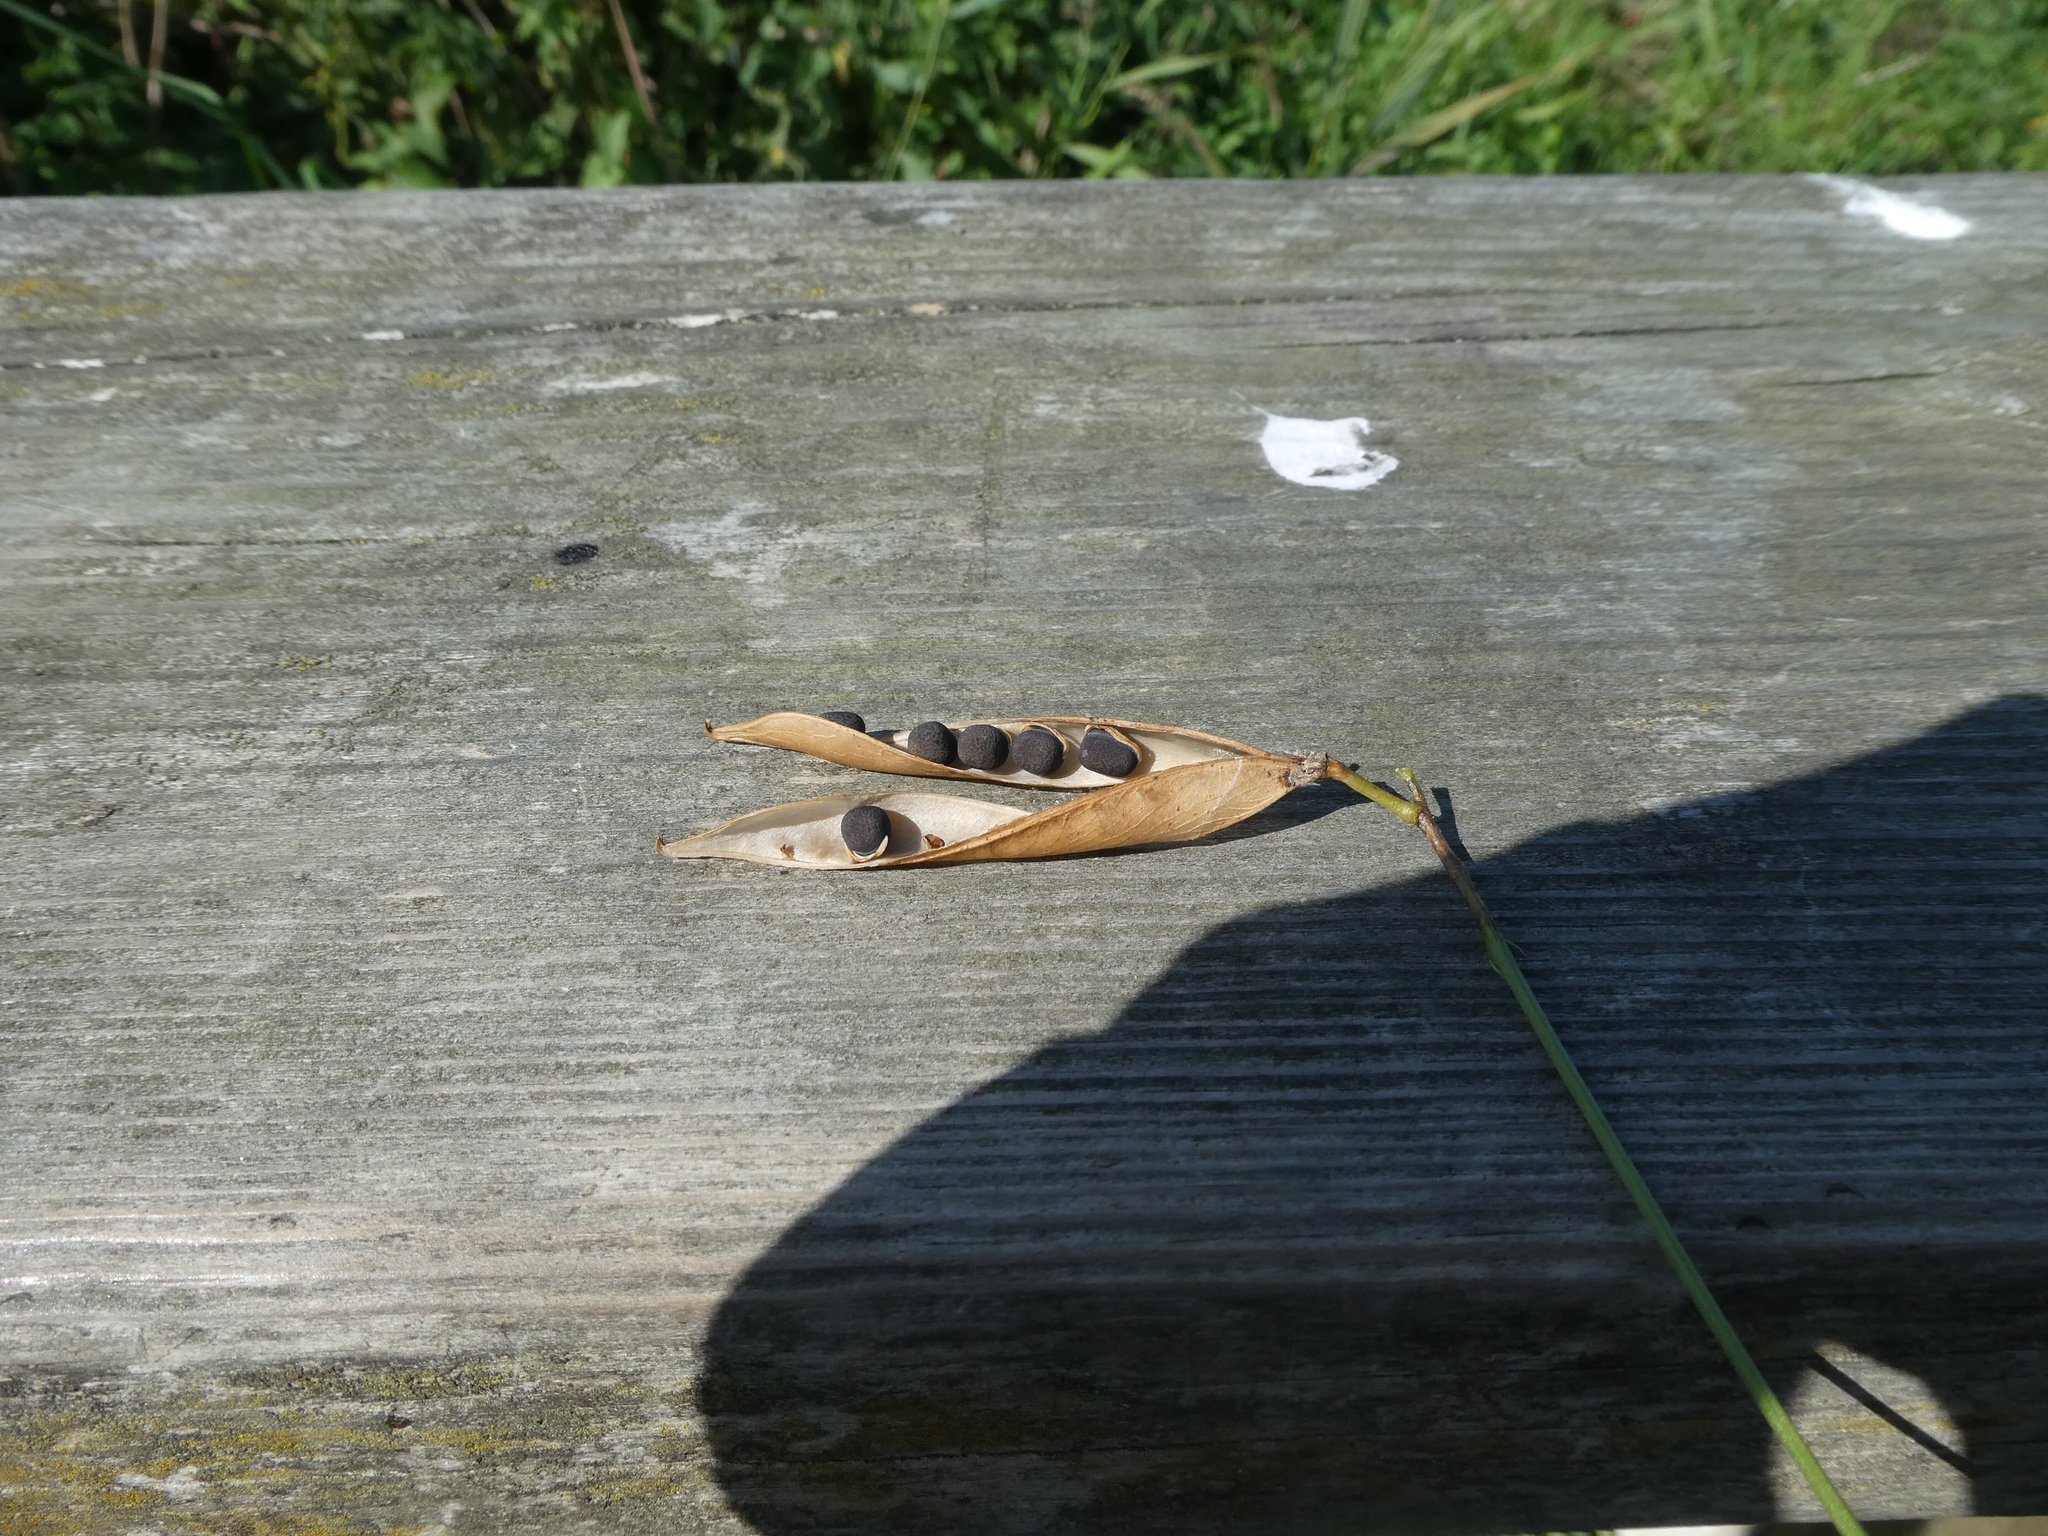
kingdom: Plantae
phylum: Tracheophyta
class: Magnoliopsida
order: Fabales
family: Fabaceae
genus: Lathyrus
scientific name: Lathyrus sylvestris
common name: Flat pea
